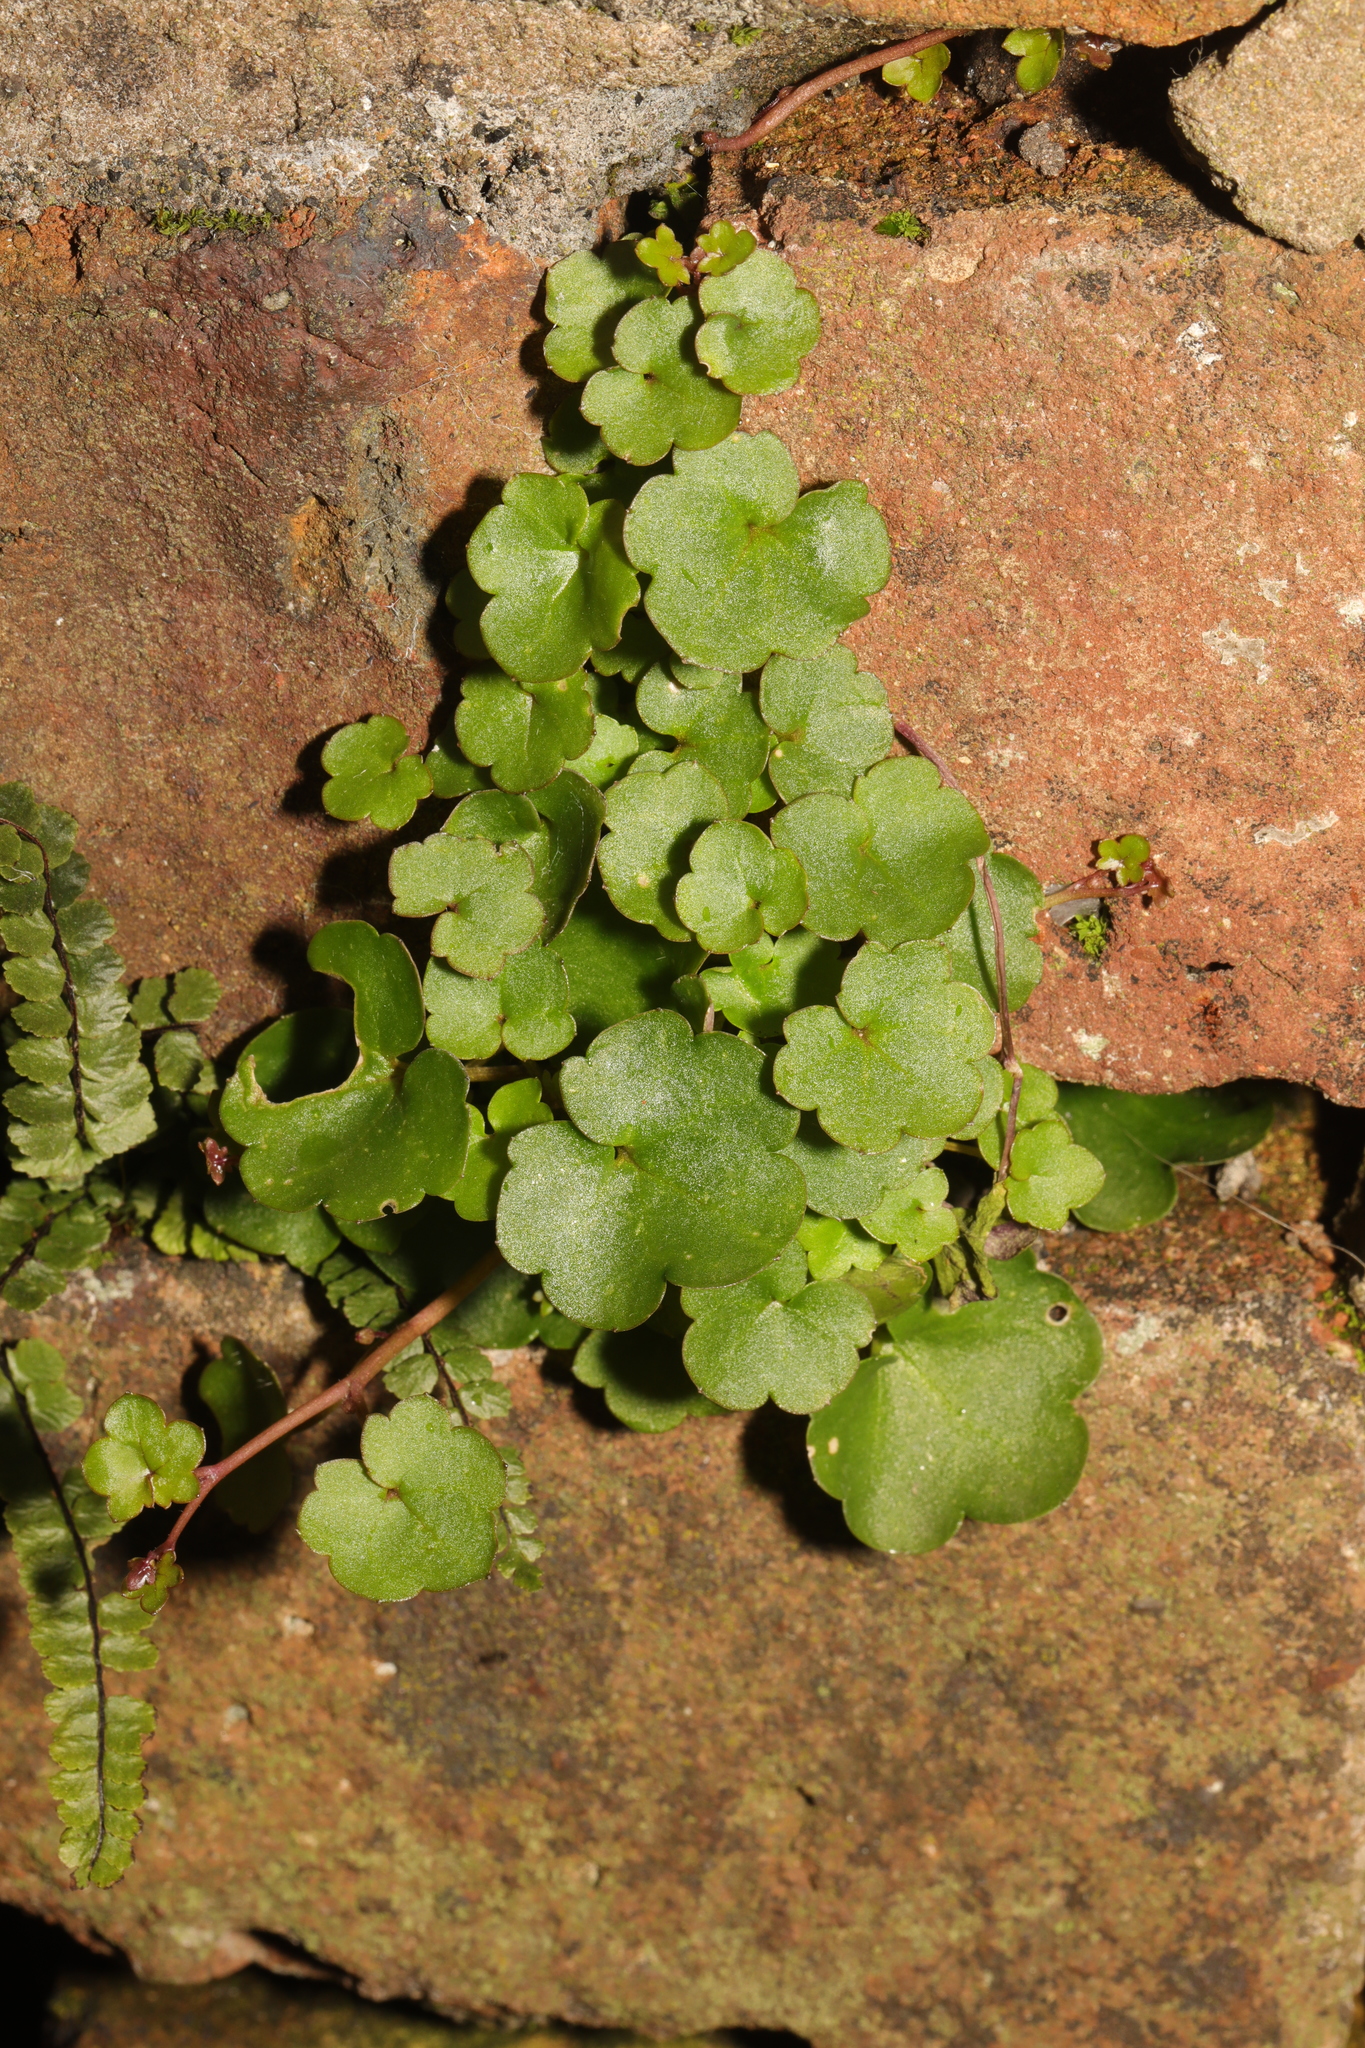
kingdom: Plantae
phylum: Tracheophyta
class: Magnoliopsida
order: Lamiales
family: Plantaginaceae
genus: Cymbalaria
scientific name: Cymbalaria muralis
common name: Ivy-leaved toadflax
